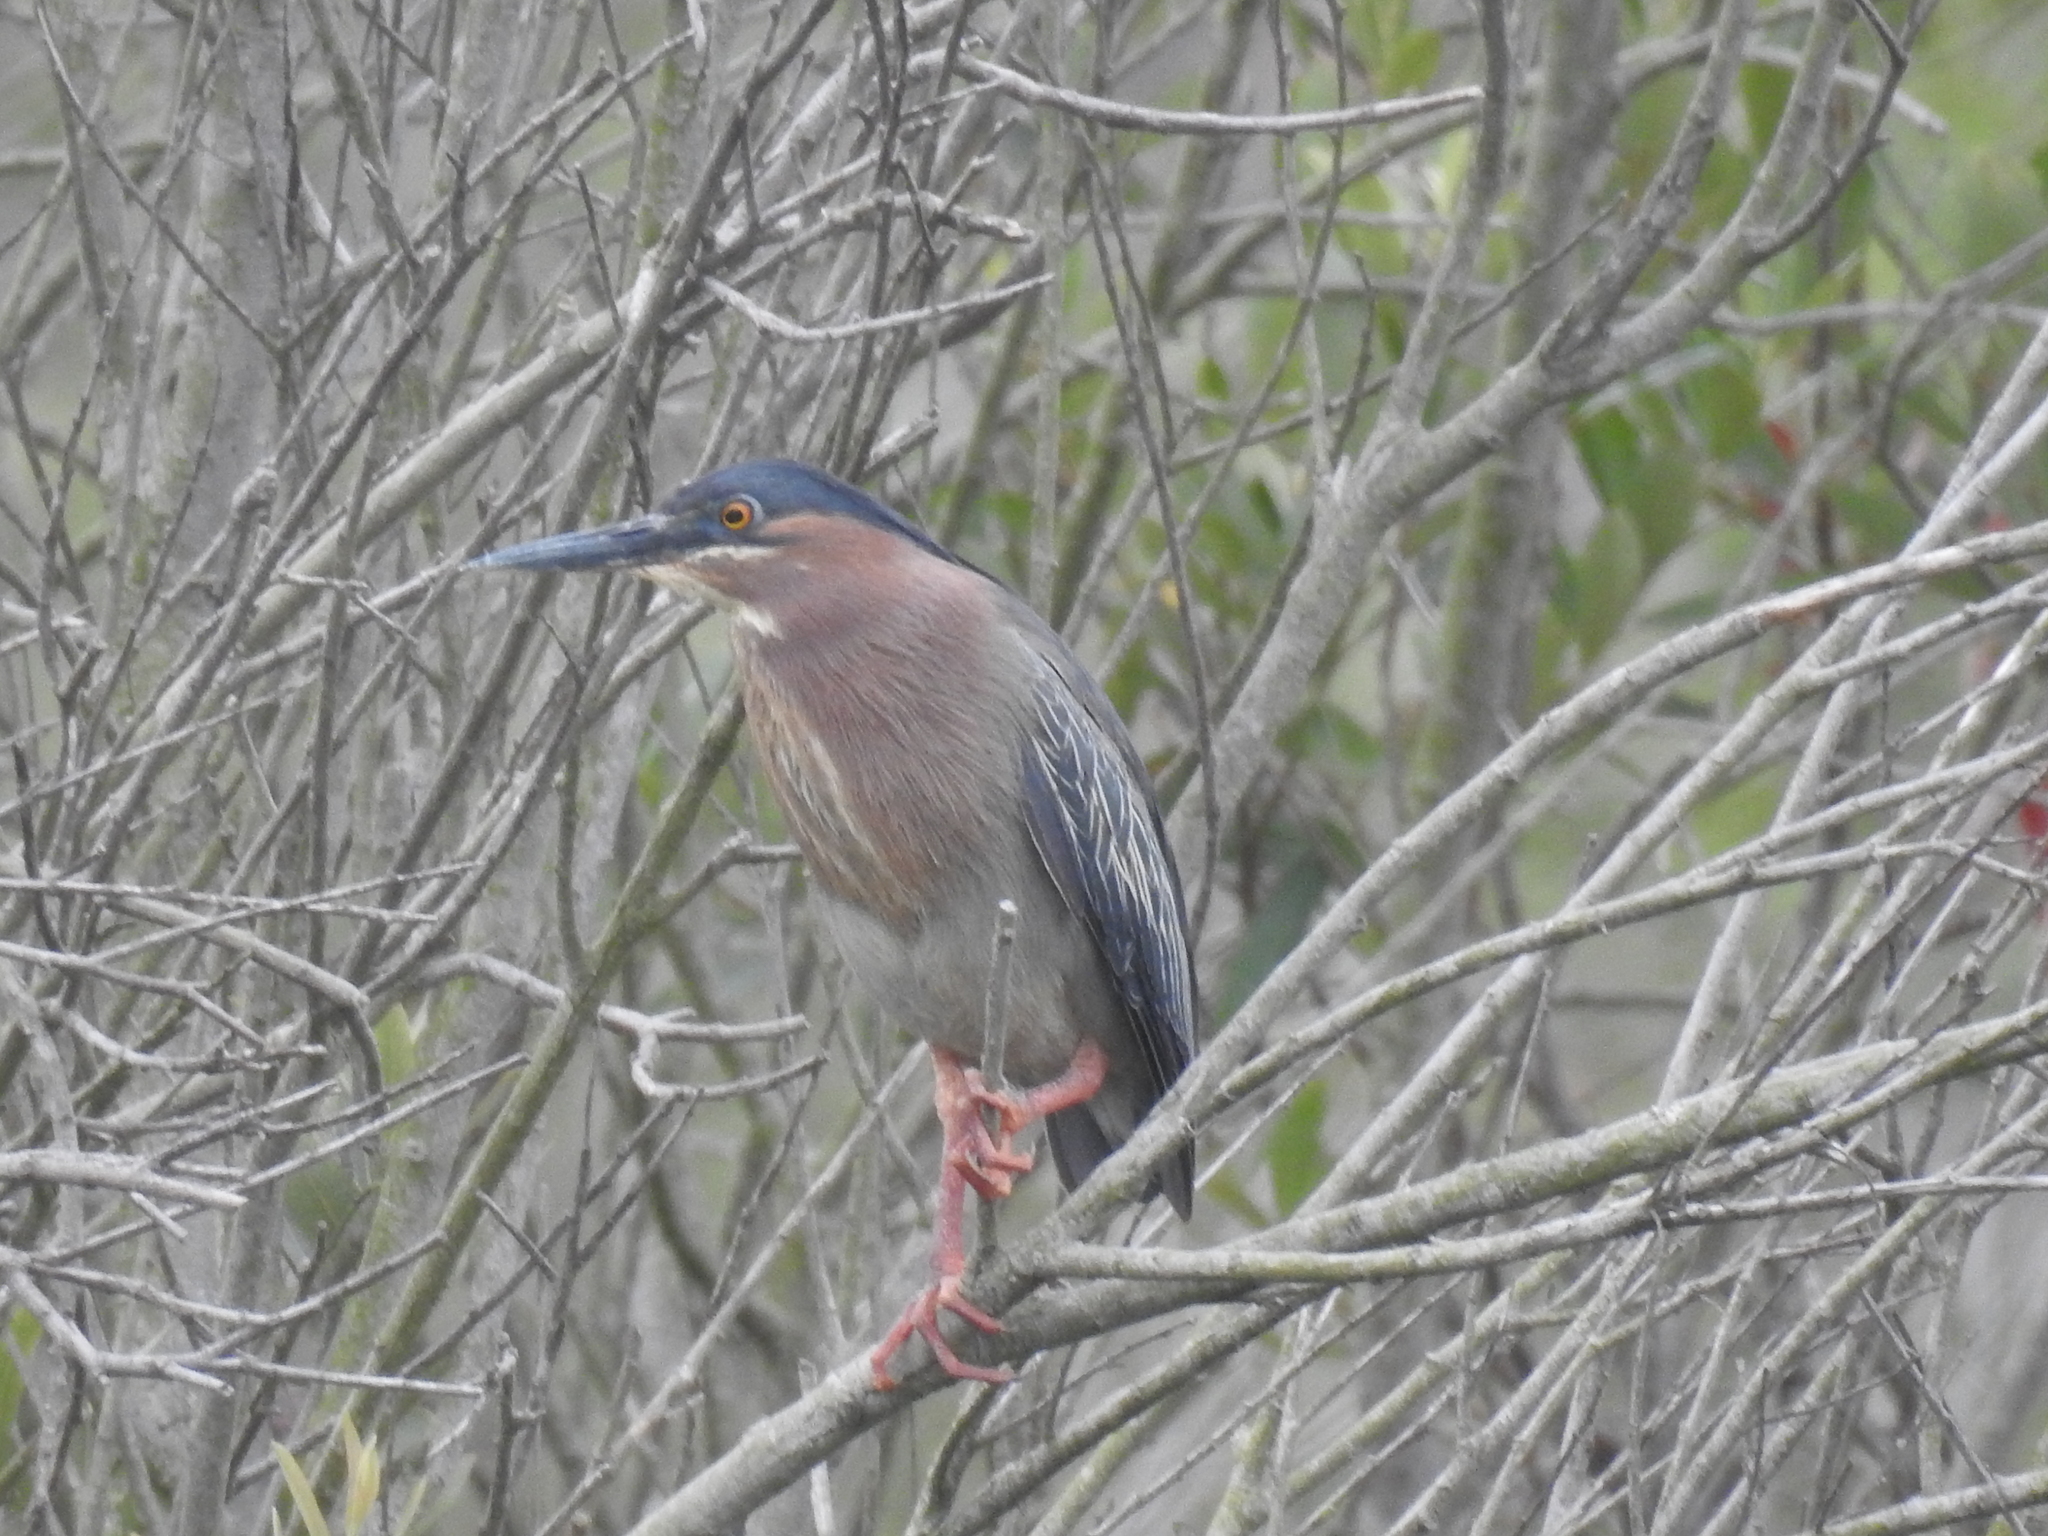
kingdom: Animalia
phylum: Chordata
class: Aves
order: Pelecaniformes
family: Ardeidae
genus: Butorides
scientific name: Butorides virescens
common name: Green heron
